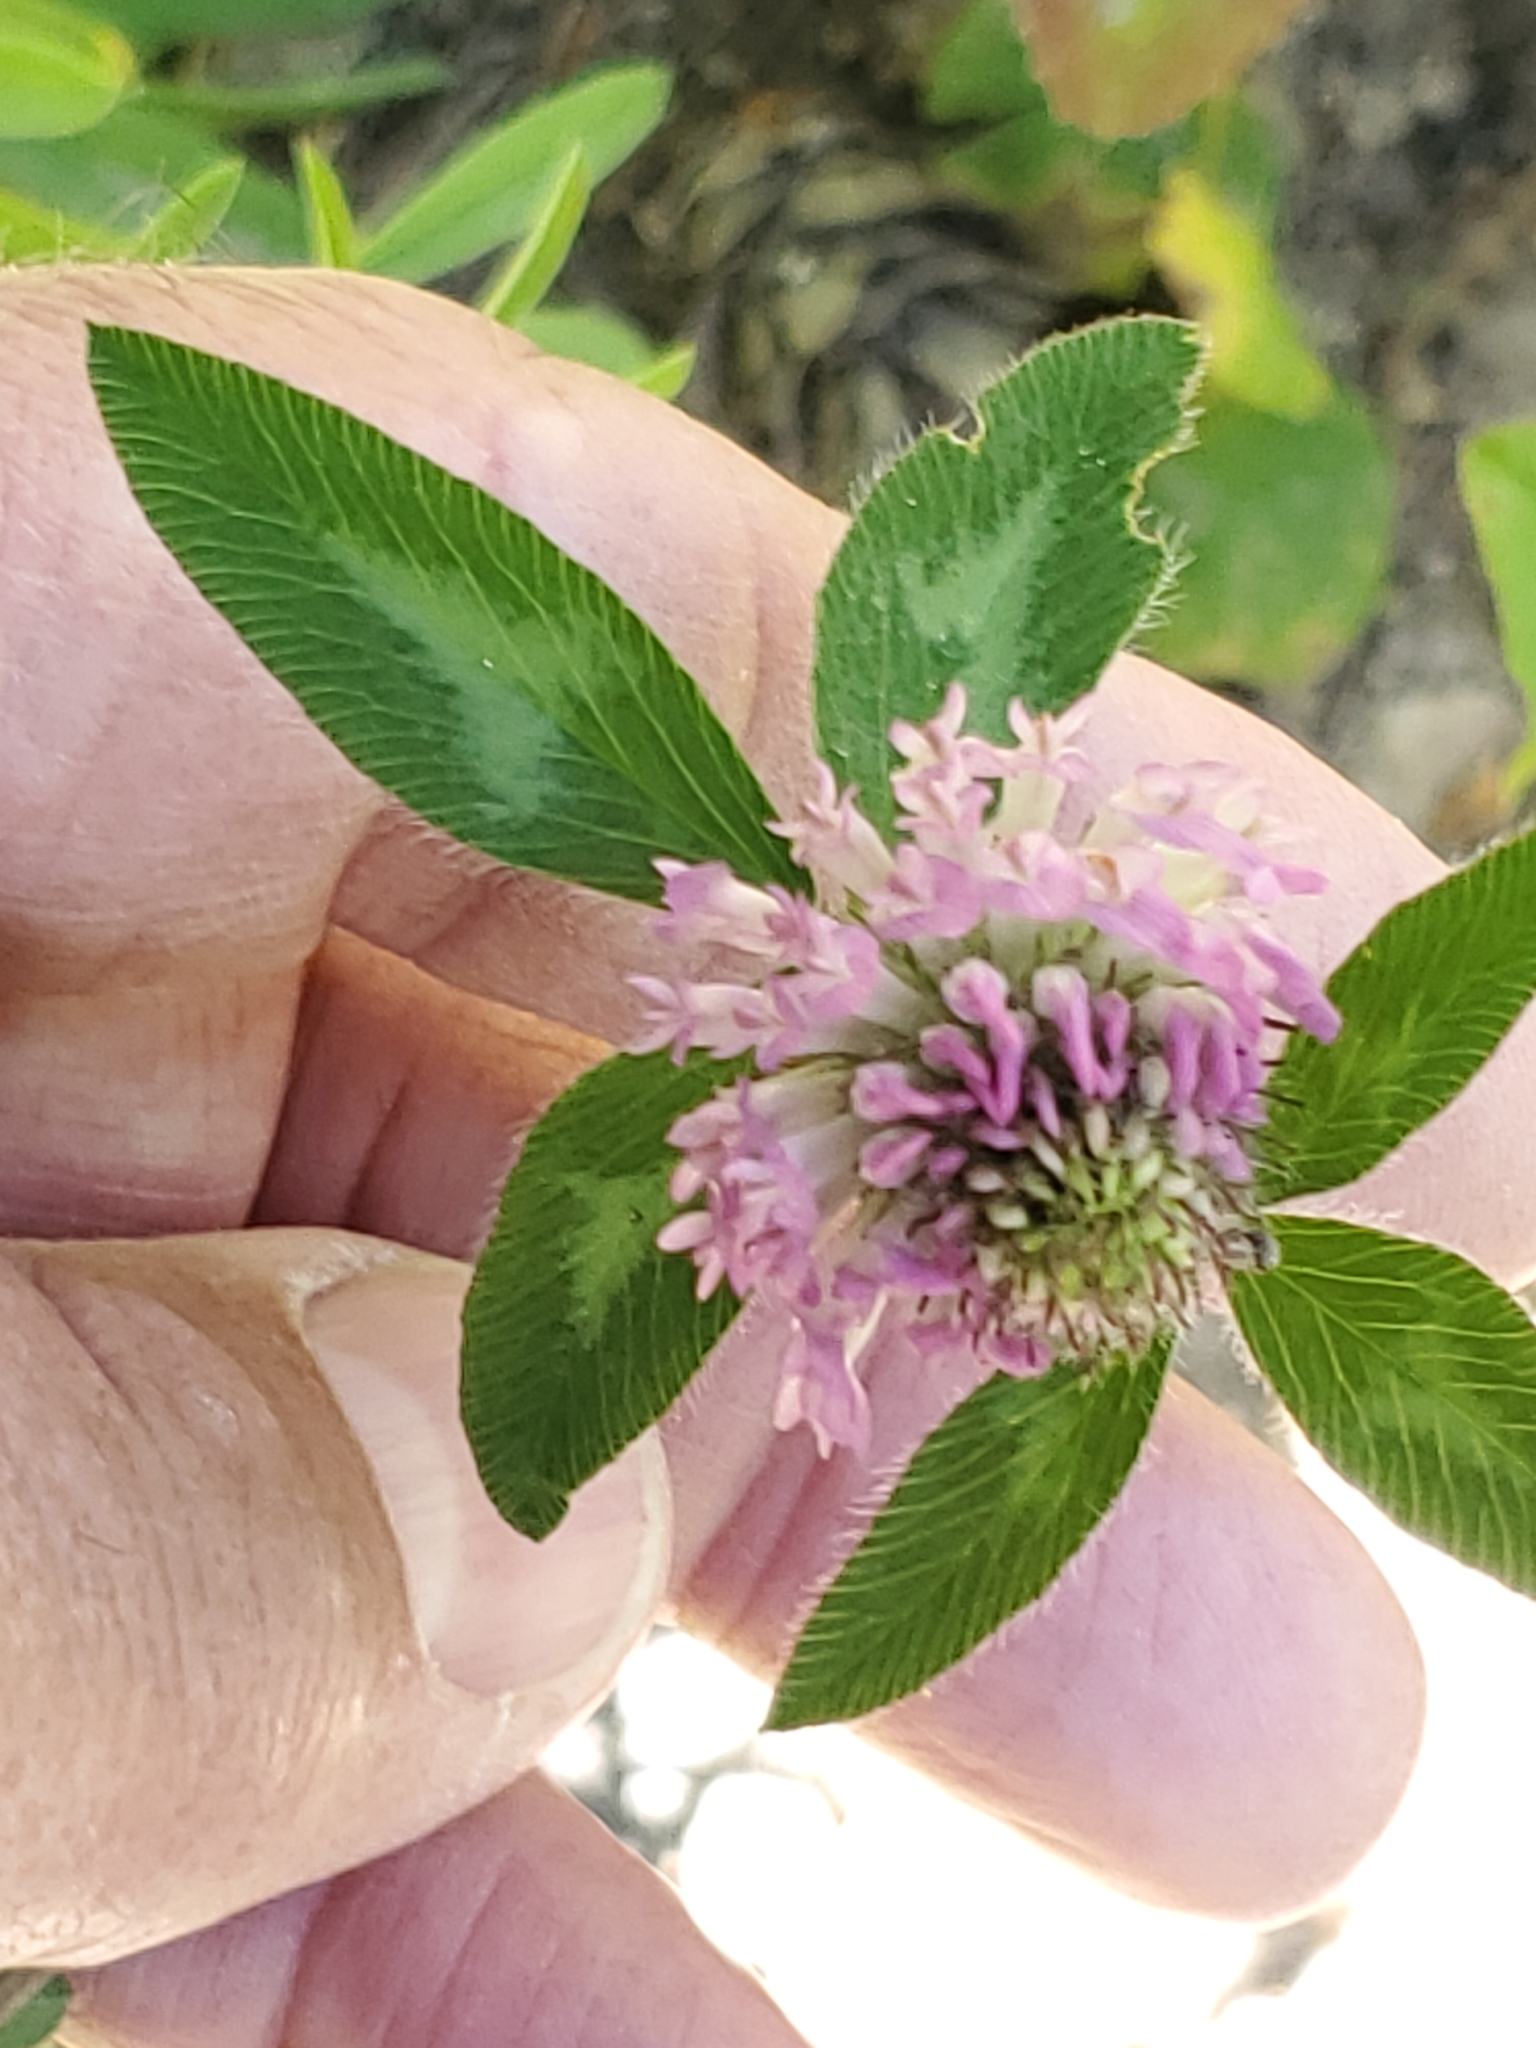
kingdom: Plantae
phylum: Tracheophyta
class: Magnoliopsida
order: Fabales
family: Fabaceae
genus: Trifolium
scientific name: Trifolium pratense
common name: Red clover
